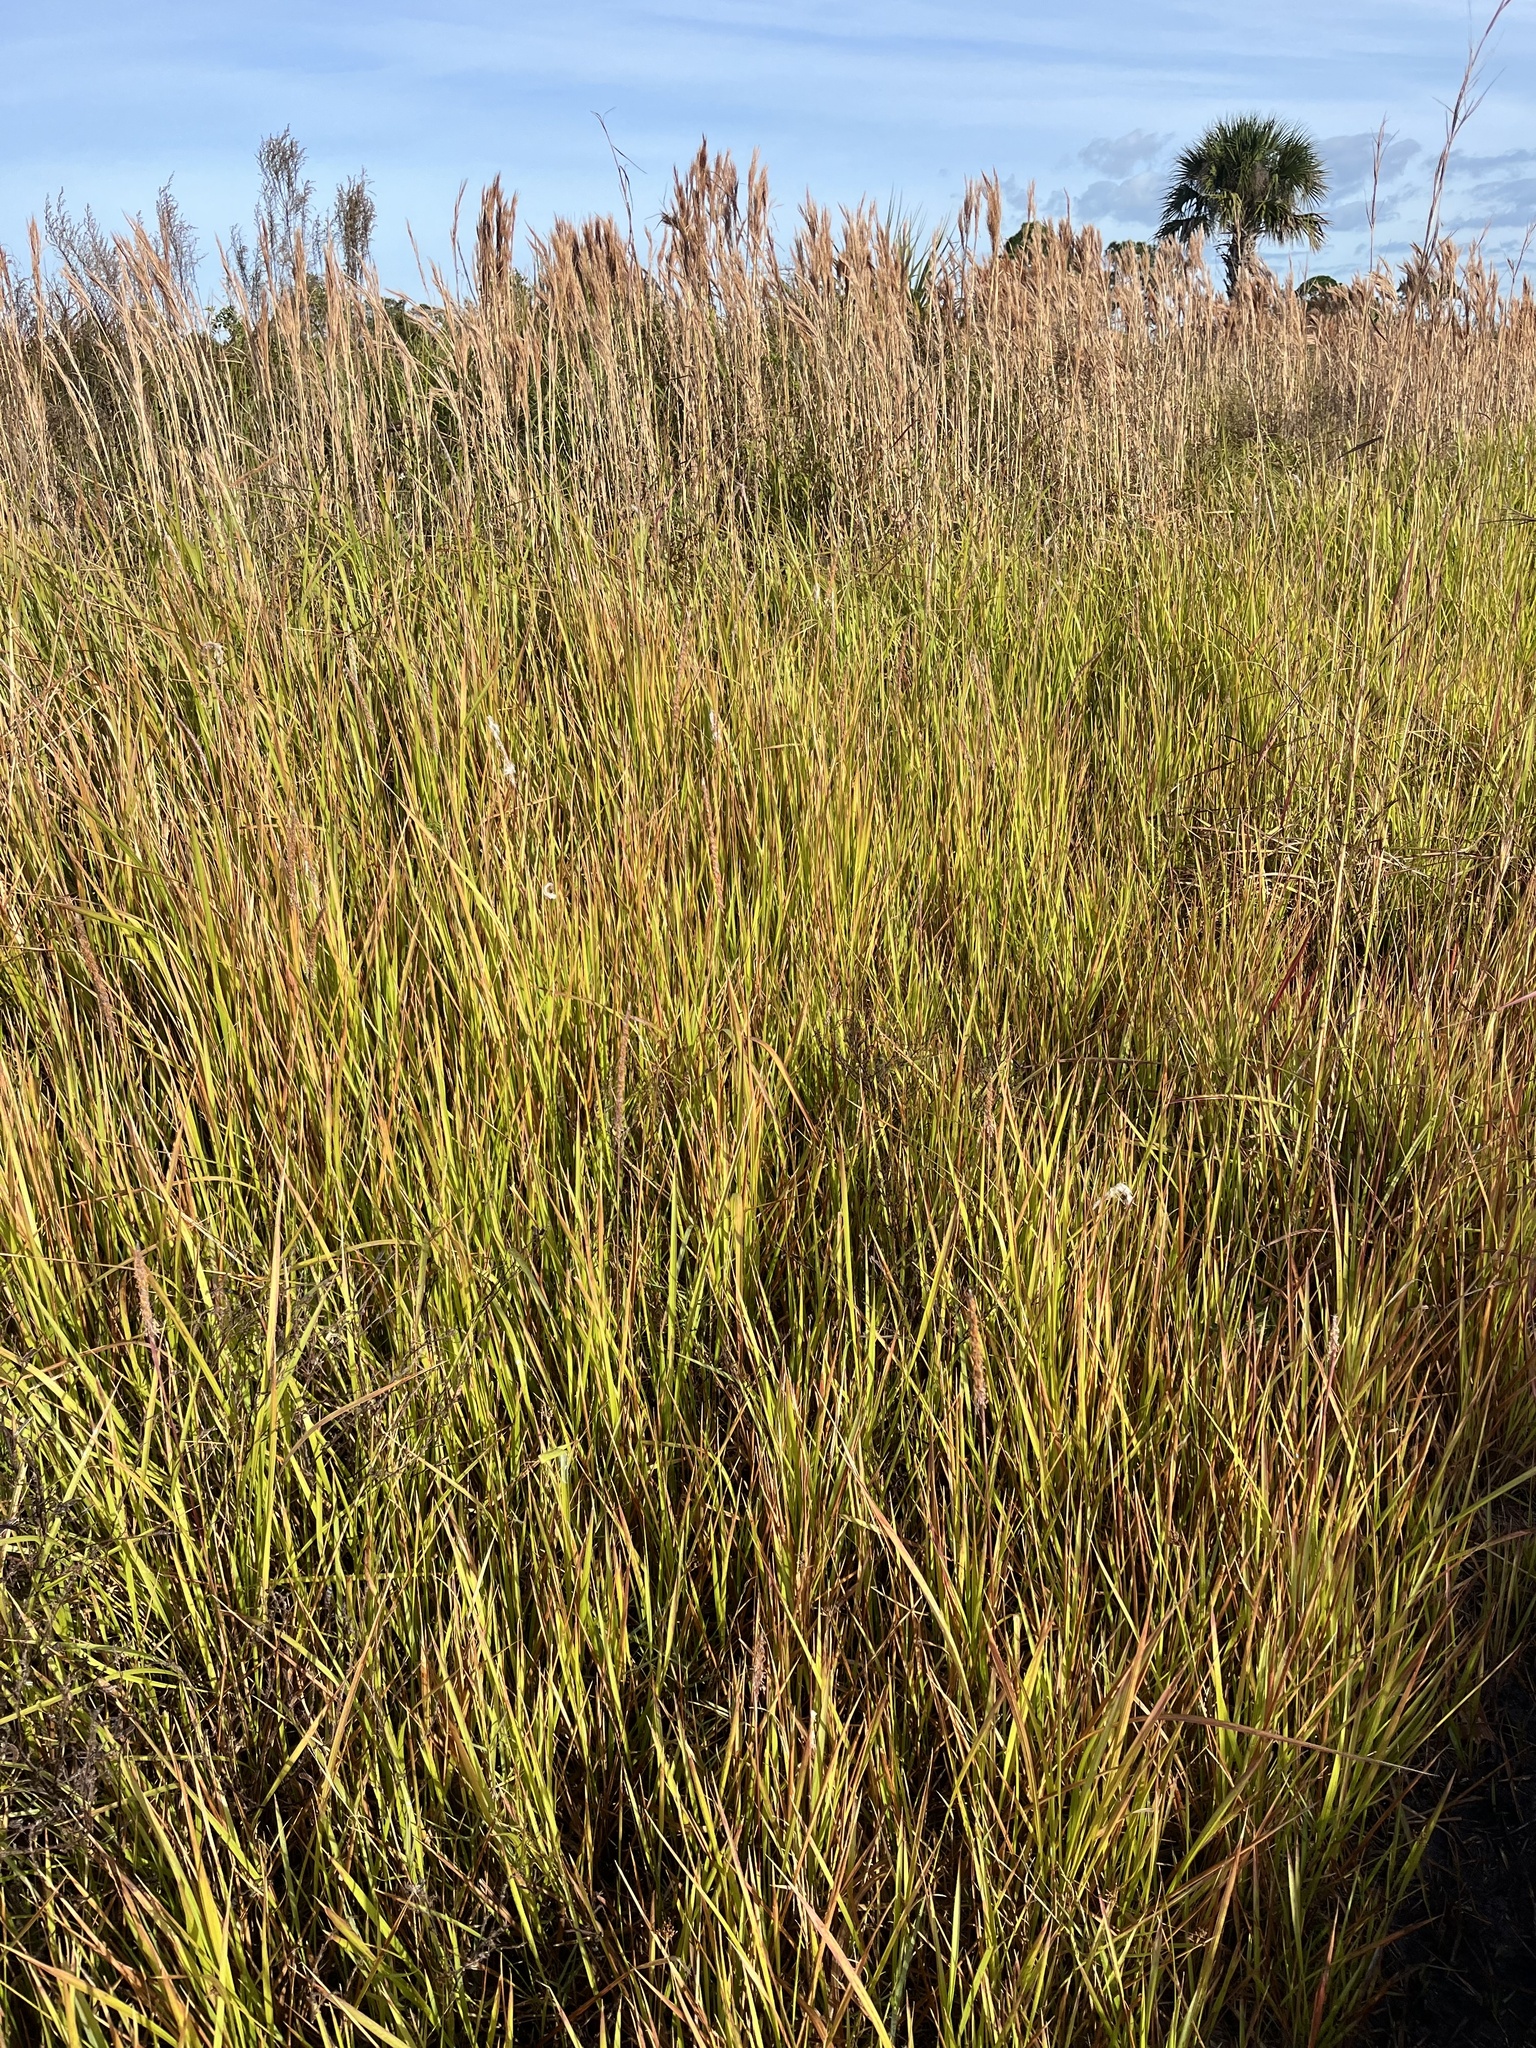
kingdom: Plantae
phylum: Tracheophyta
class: Liliopsida
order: Poales
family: Poaceae
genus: Imperata
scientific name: Imperata cylindrica
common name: Cogongrass
